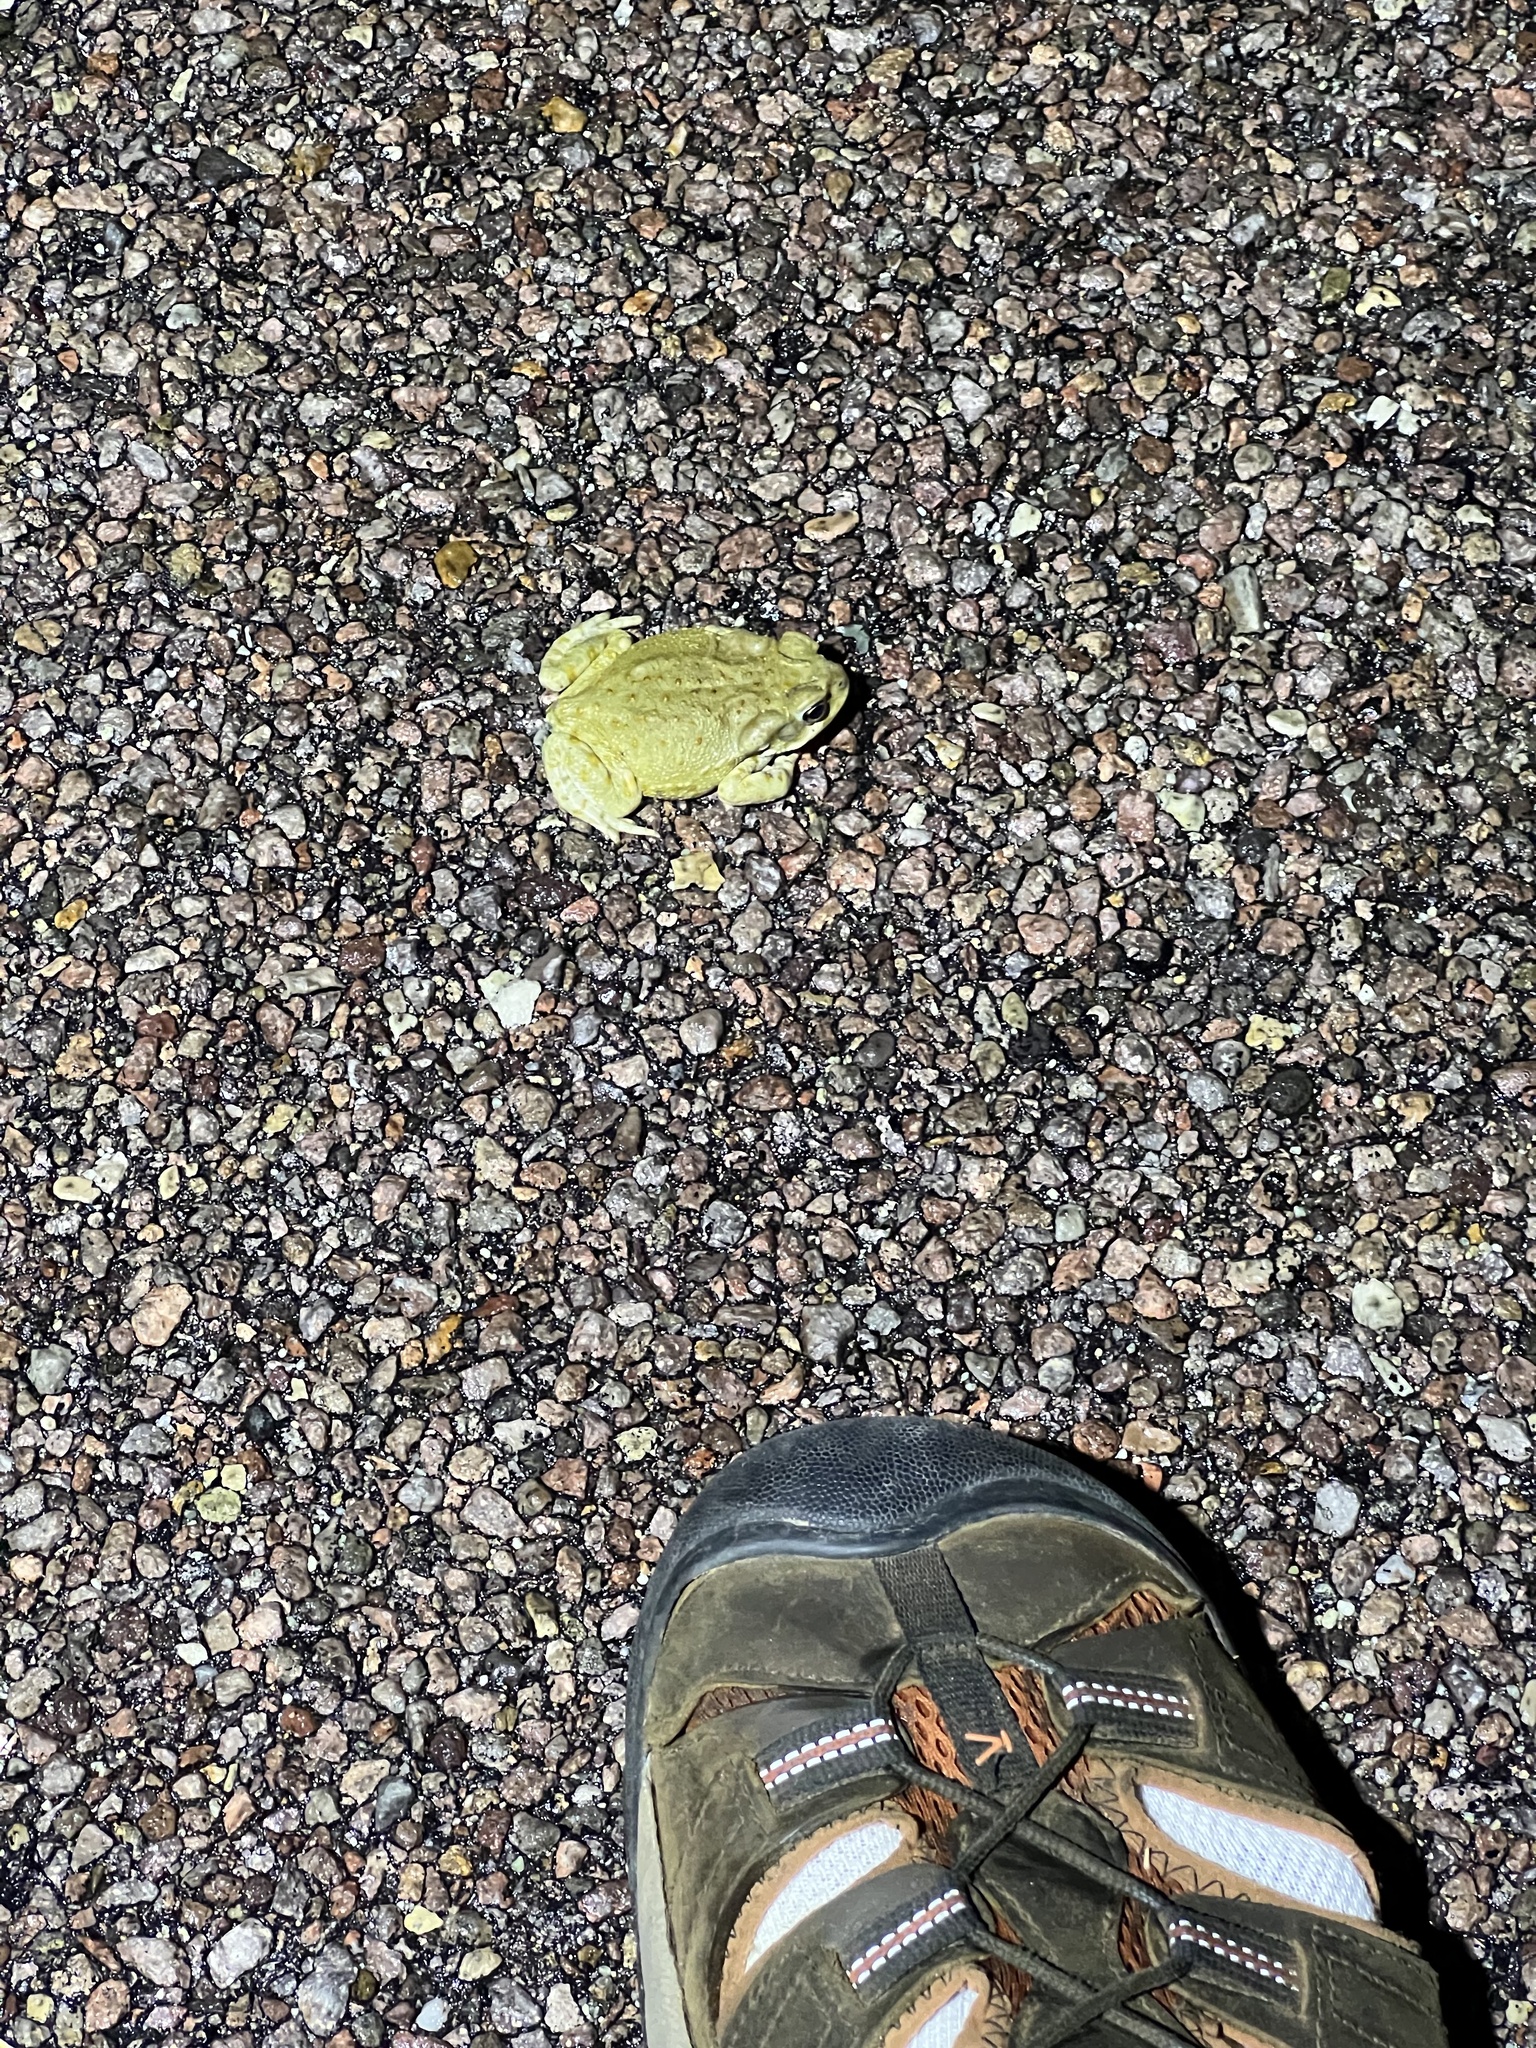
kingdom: Animalia
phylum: Chordata
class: Amphibia
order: Anura
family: Bufonidae
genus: Incilius
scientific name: Incilius alvarius
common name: Sonoran desert toad
